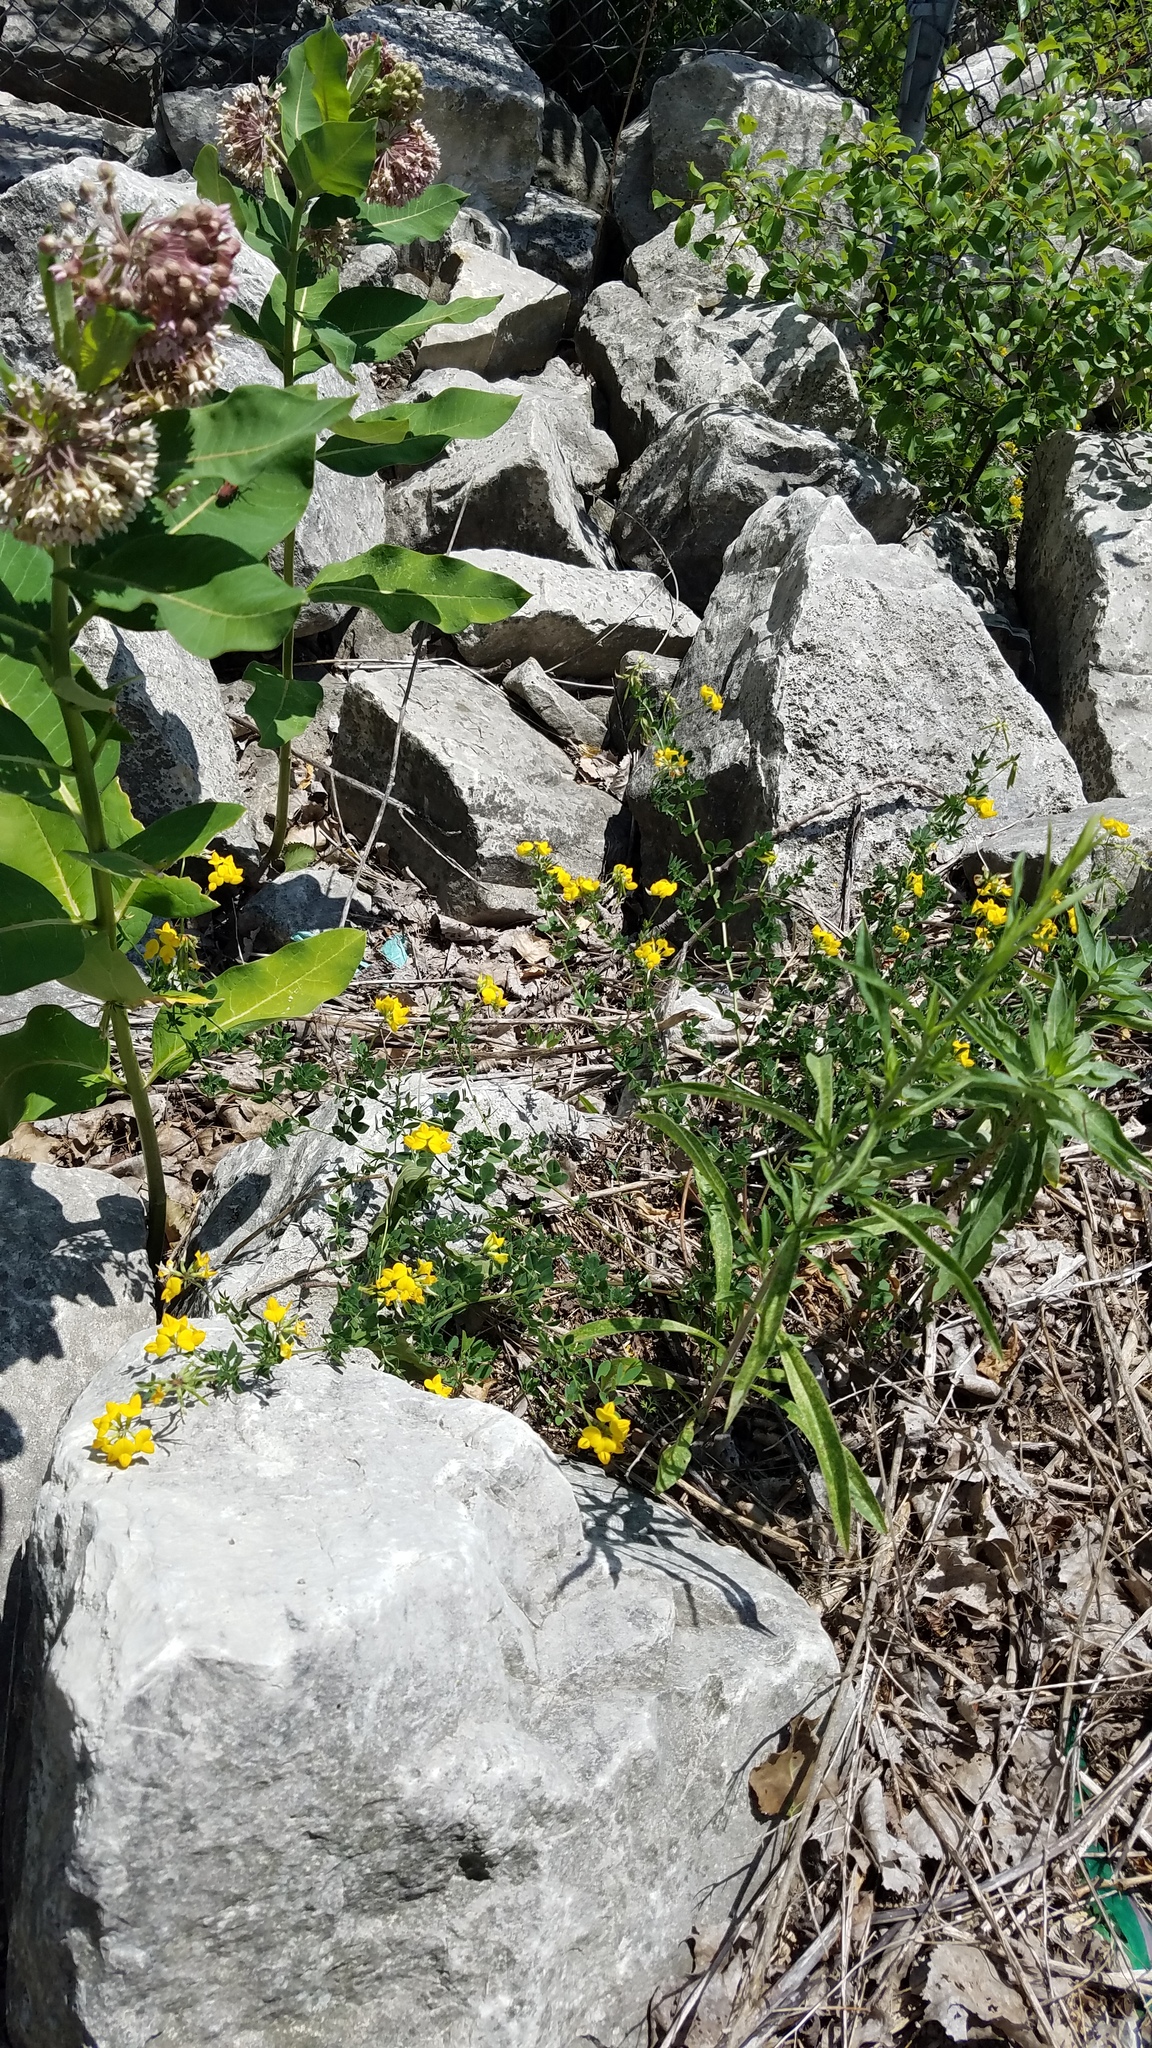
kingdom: Plantae
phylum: Tracheophyta
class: Magnoliopsida
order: Fabales
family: Fabaceae
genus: Lotus
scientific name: Lotus corniculatus
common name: Common bird's-foot-trefoil
